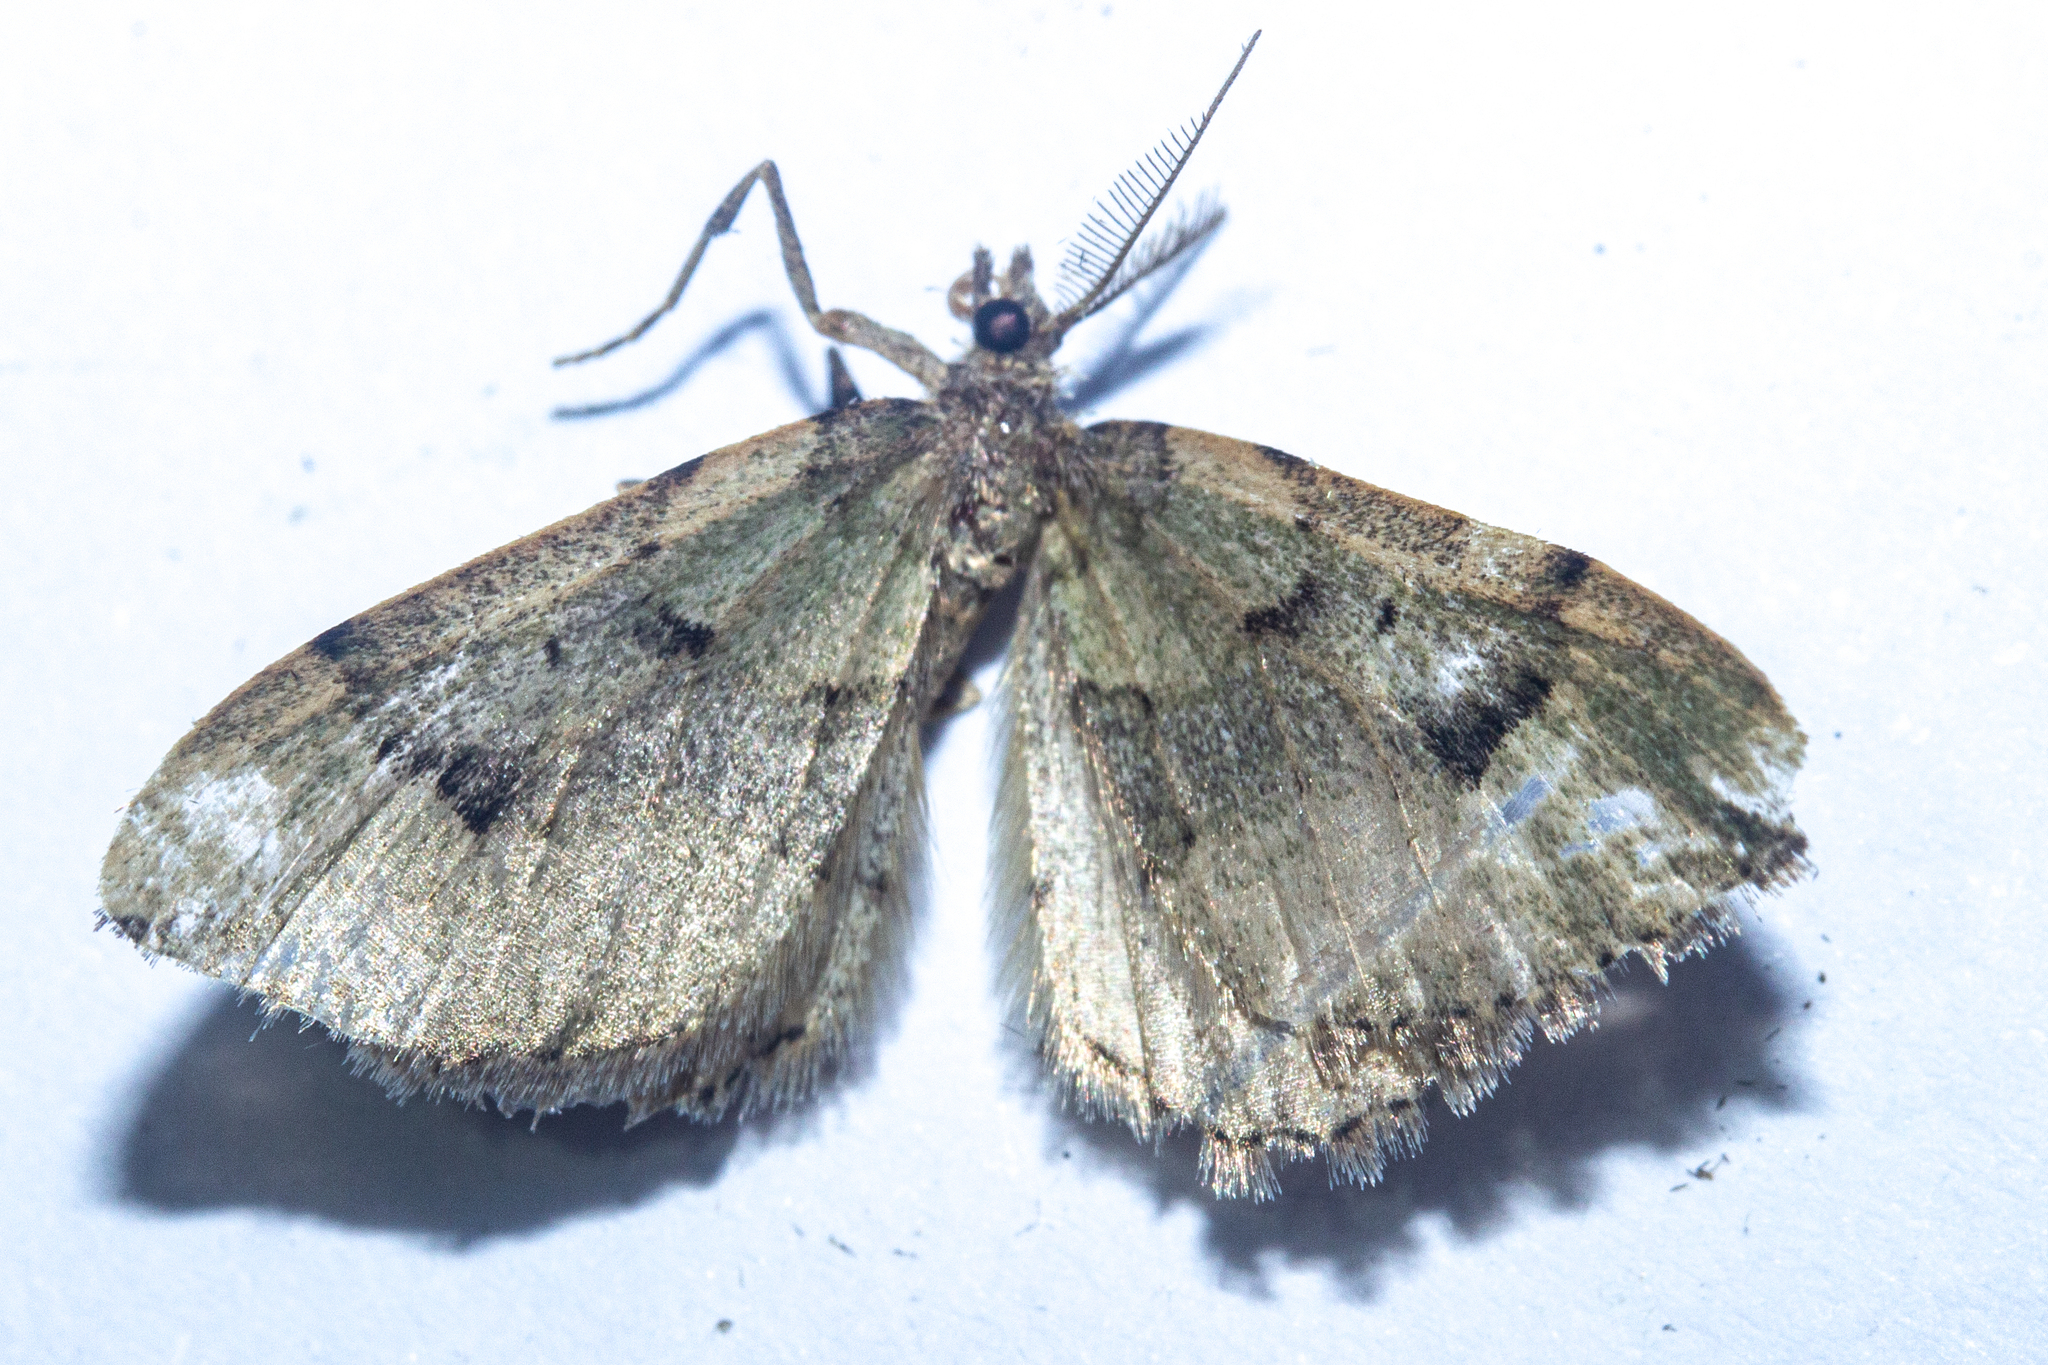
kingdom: Animalia
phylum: Arthropoda
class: Insecta
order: Lepidoptera
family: Geometridae
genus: Epyaxa
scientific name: Epyaxa rosearia
